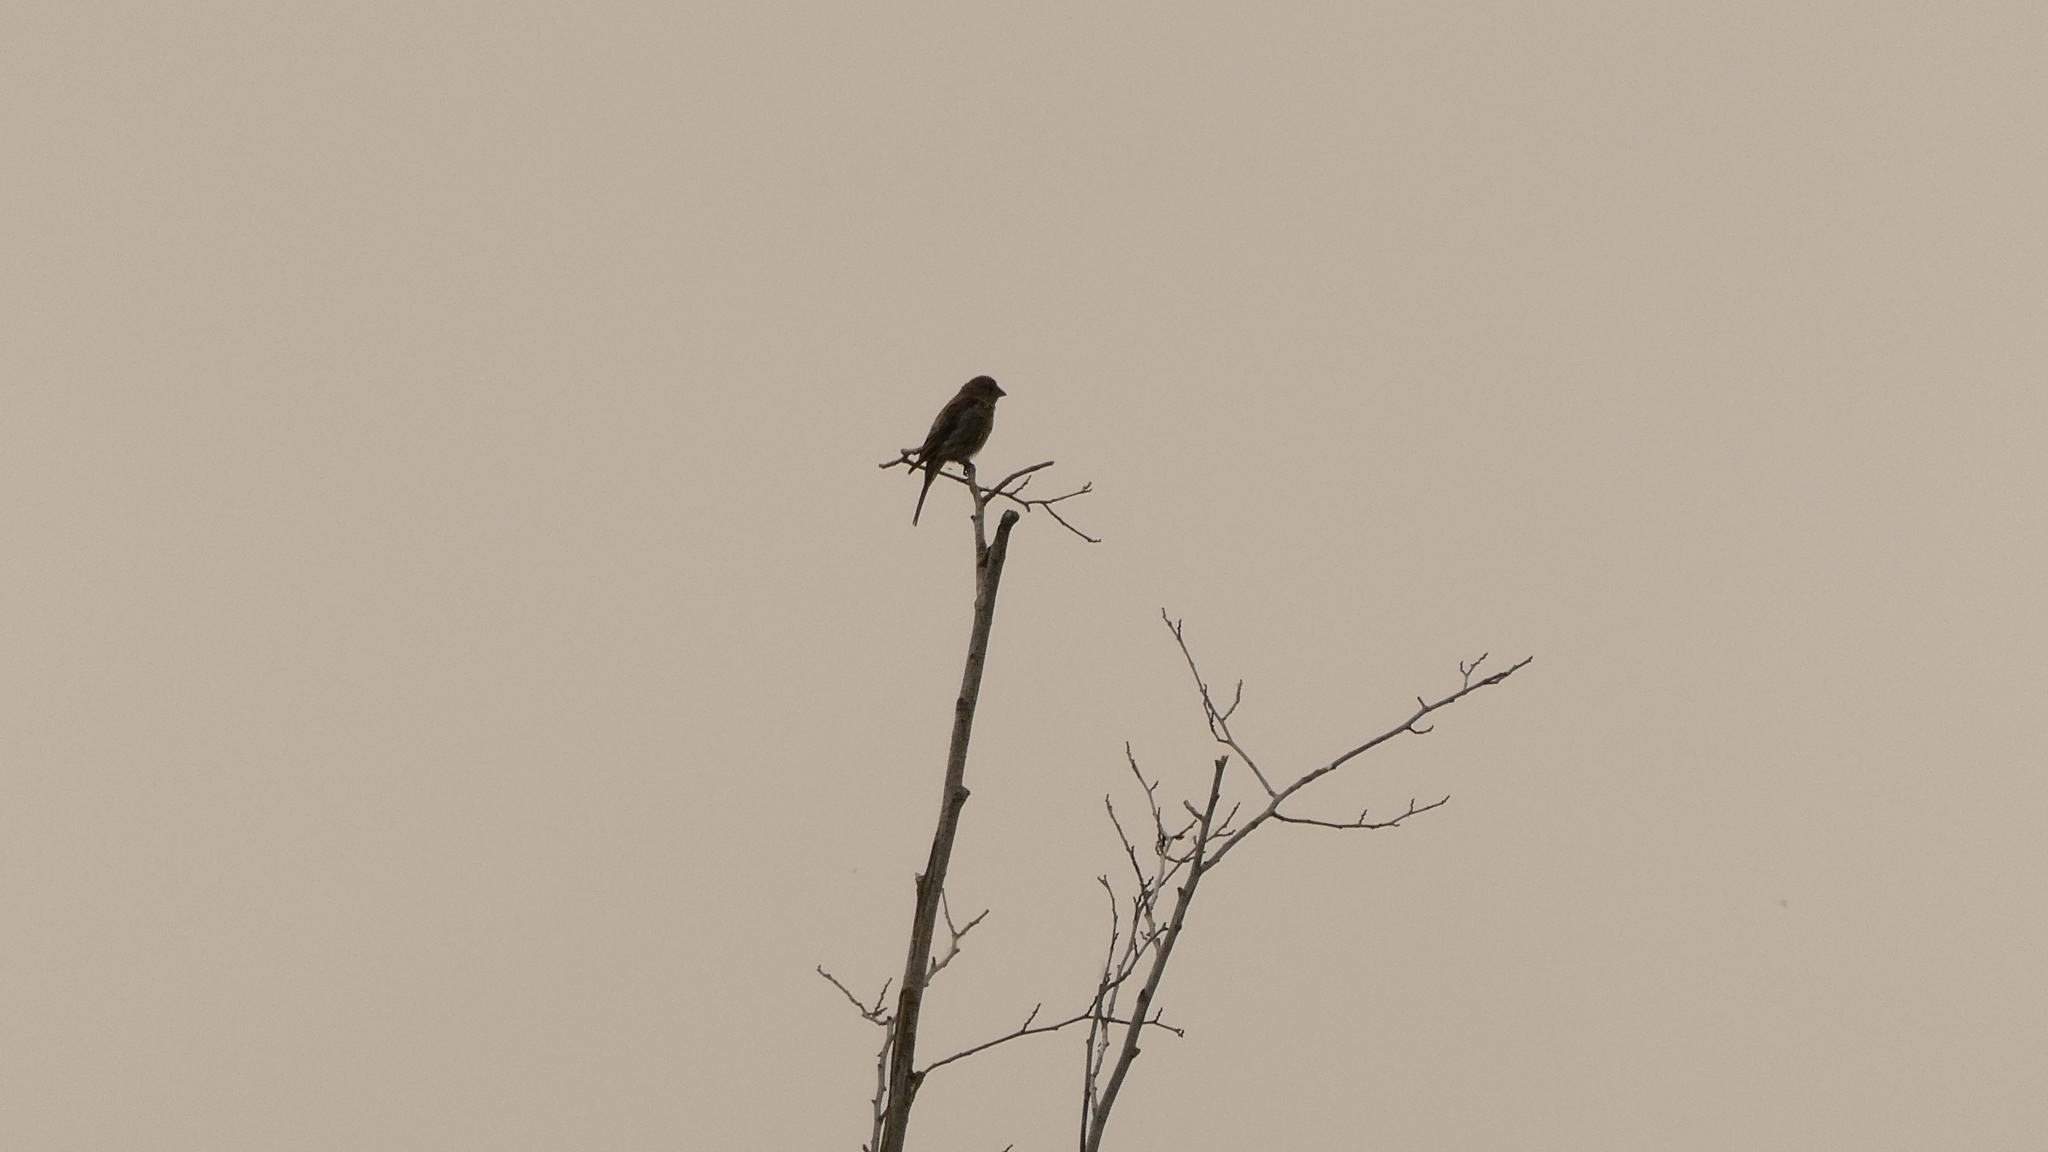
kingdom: Animalia
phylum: Chordata
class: Aves
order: Passeriformes
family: Fringillidae
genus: Haemorhous
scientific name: Haemorhous mexicanus
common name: House finch
